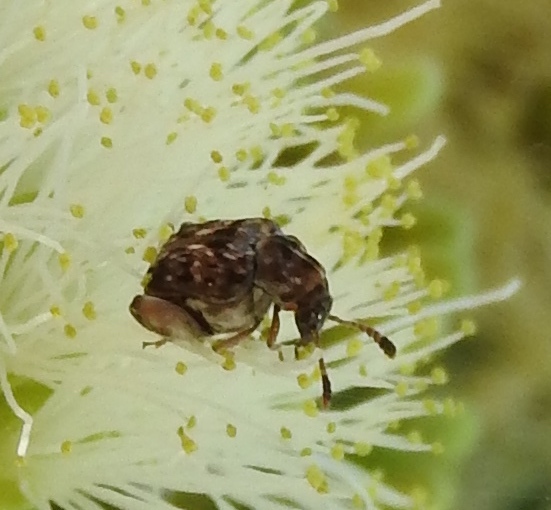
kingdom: Animalia
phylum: Arthropoda
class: Insecta
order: Coleoptera
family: Chrysomelidae
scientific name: Chrysomelidae
